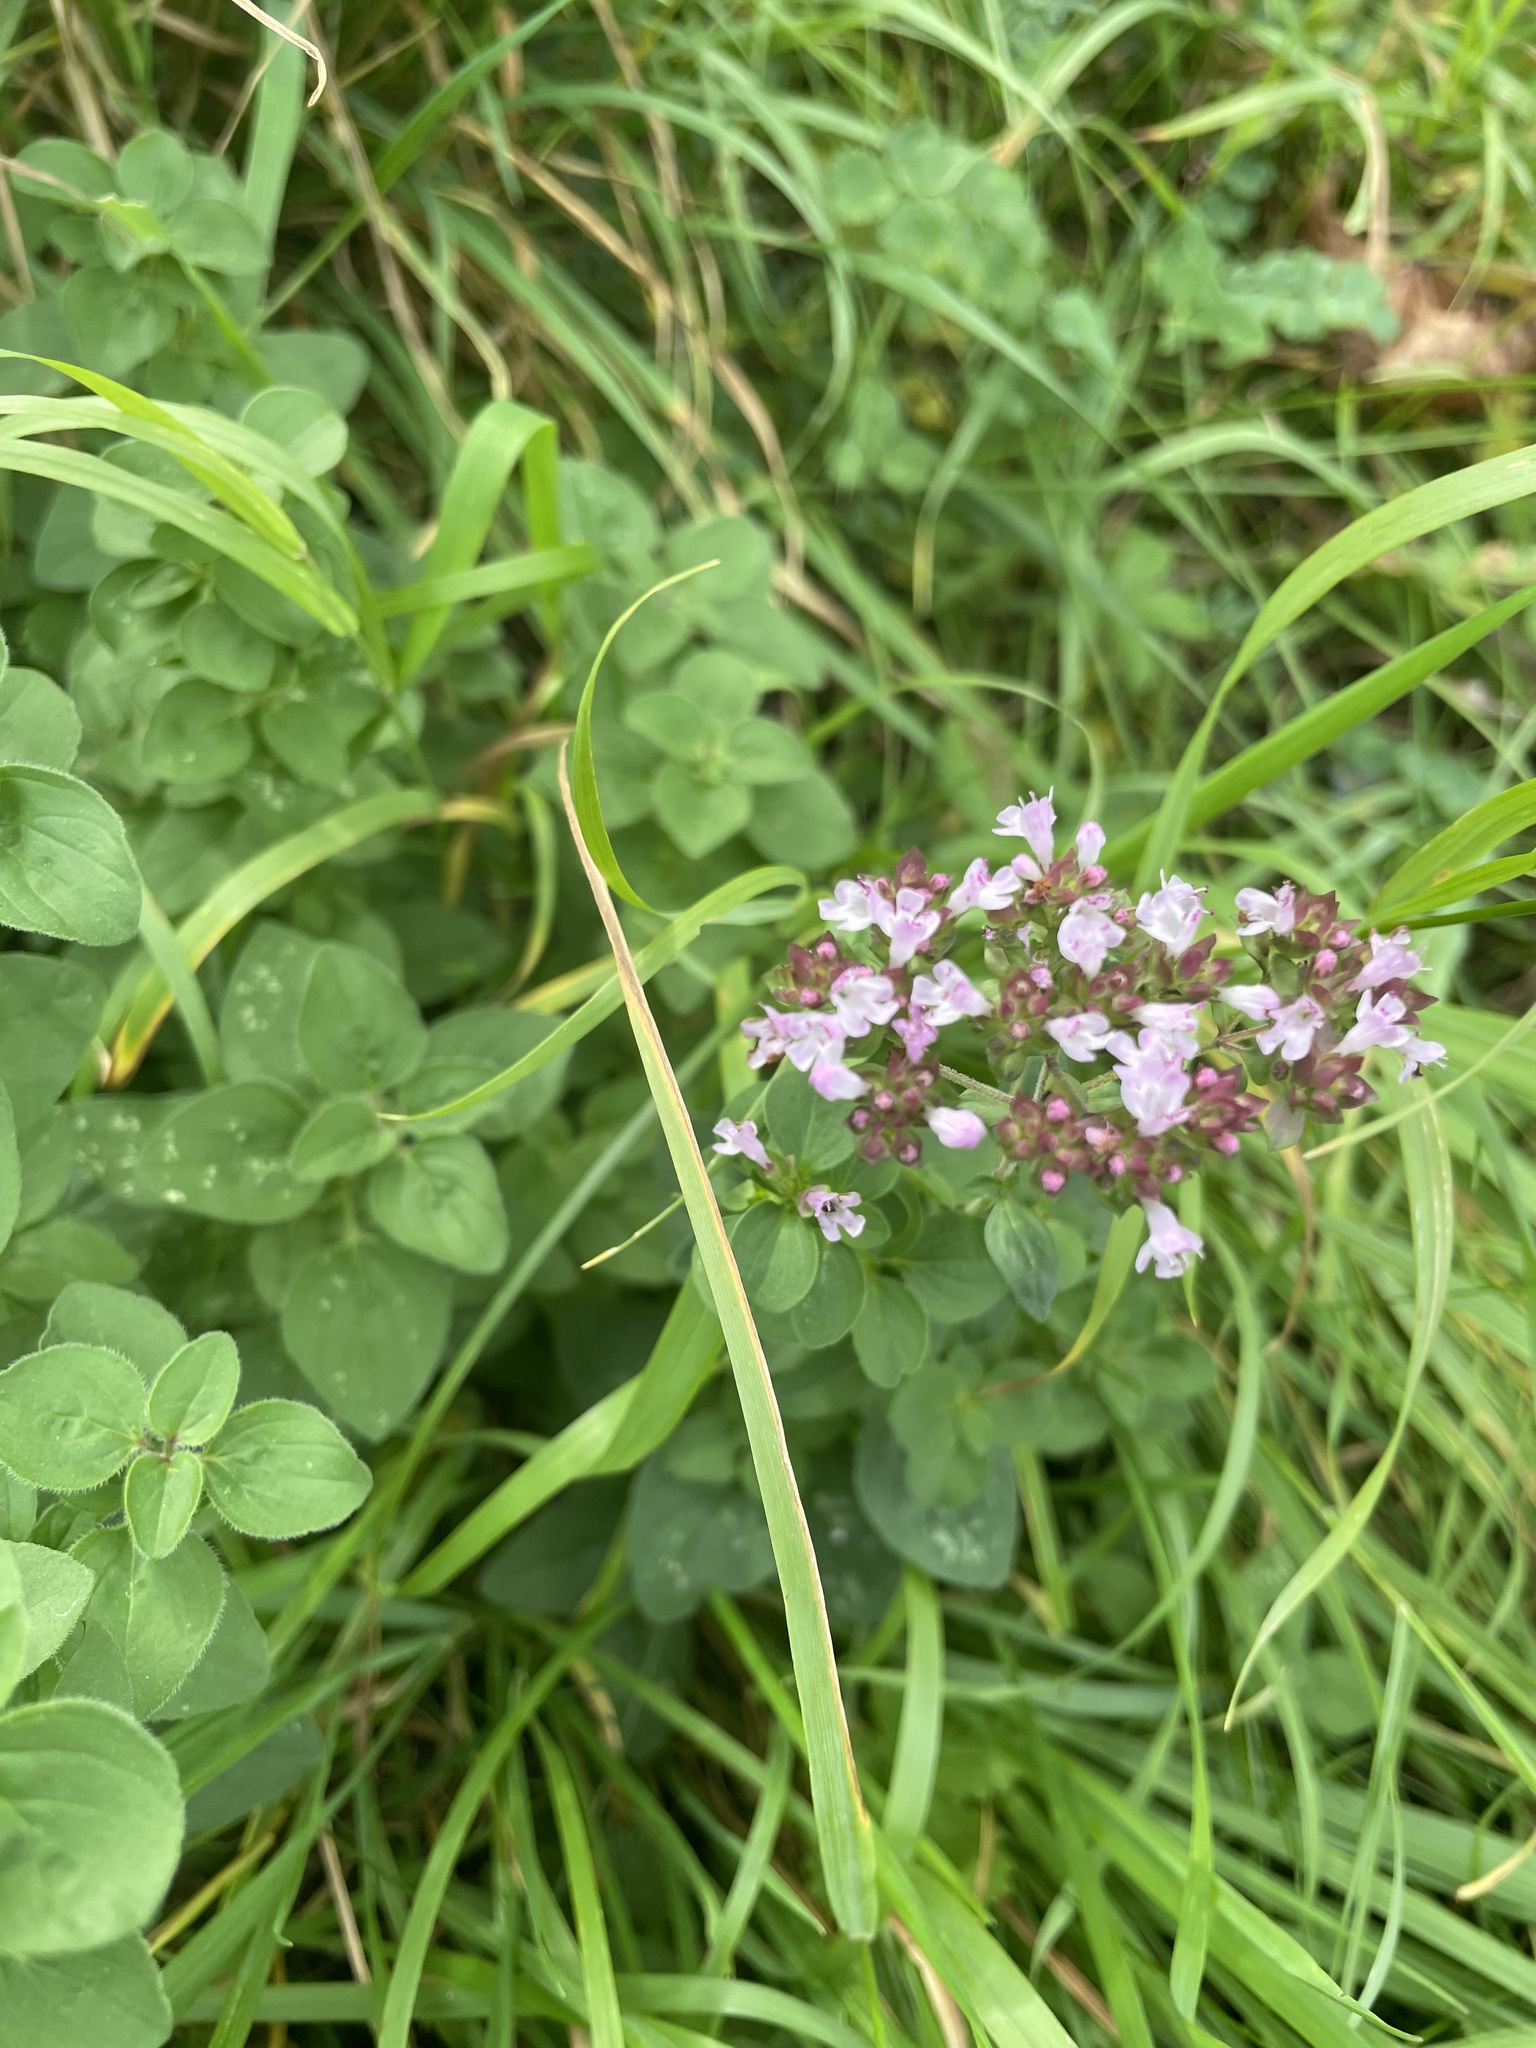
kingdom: Plantae
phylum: Tracheophyta
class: Magnoliopsida
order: Lamiales
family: Lamiaceae
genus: Origanum
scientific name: Origanum vulgare
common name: Wild marjoram
